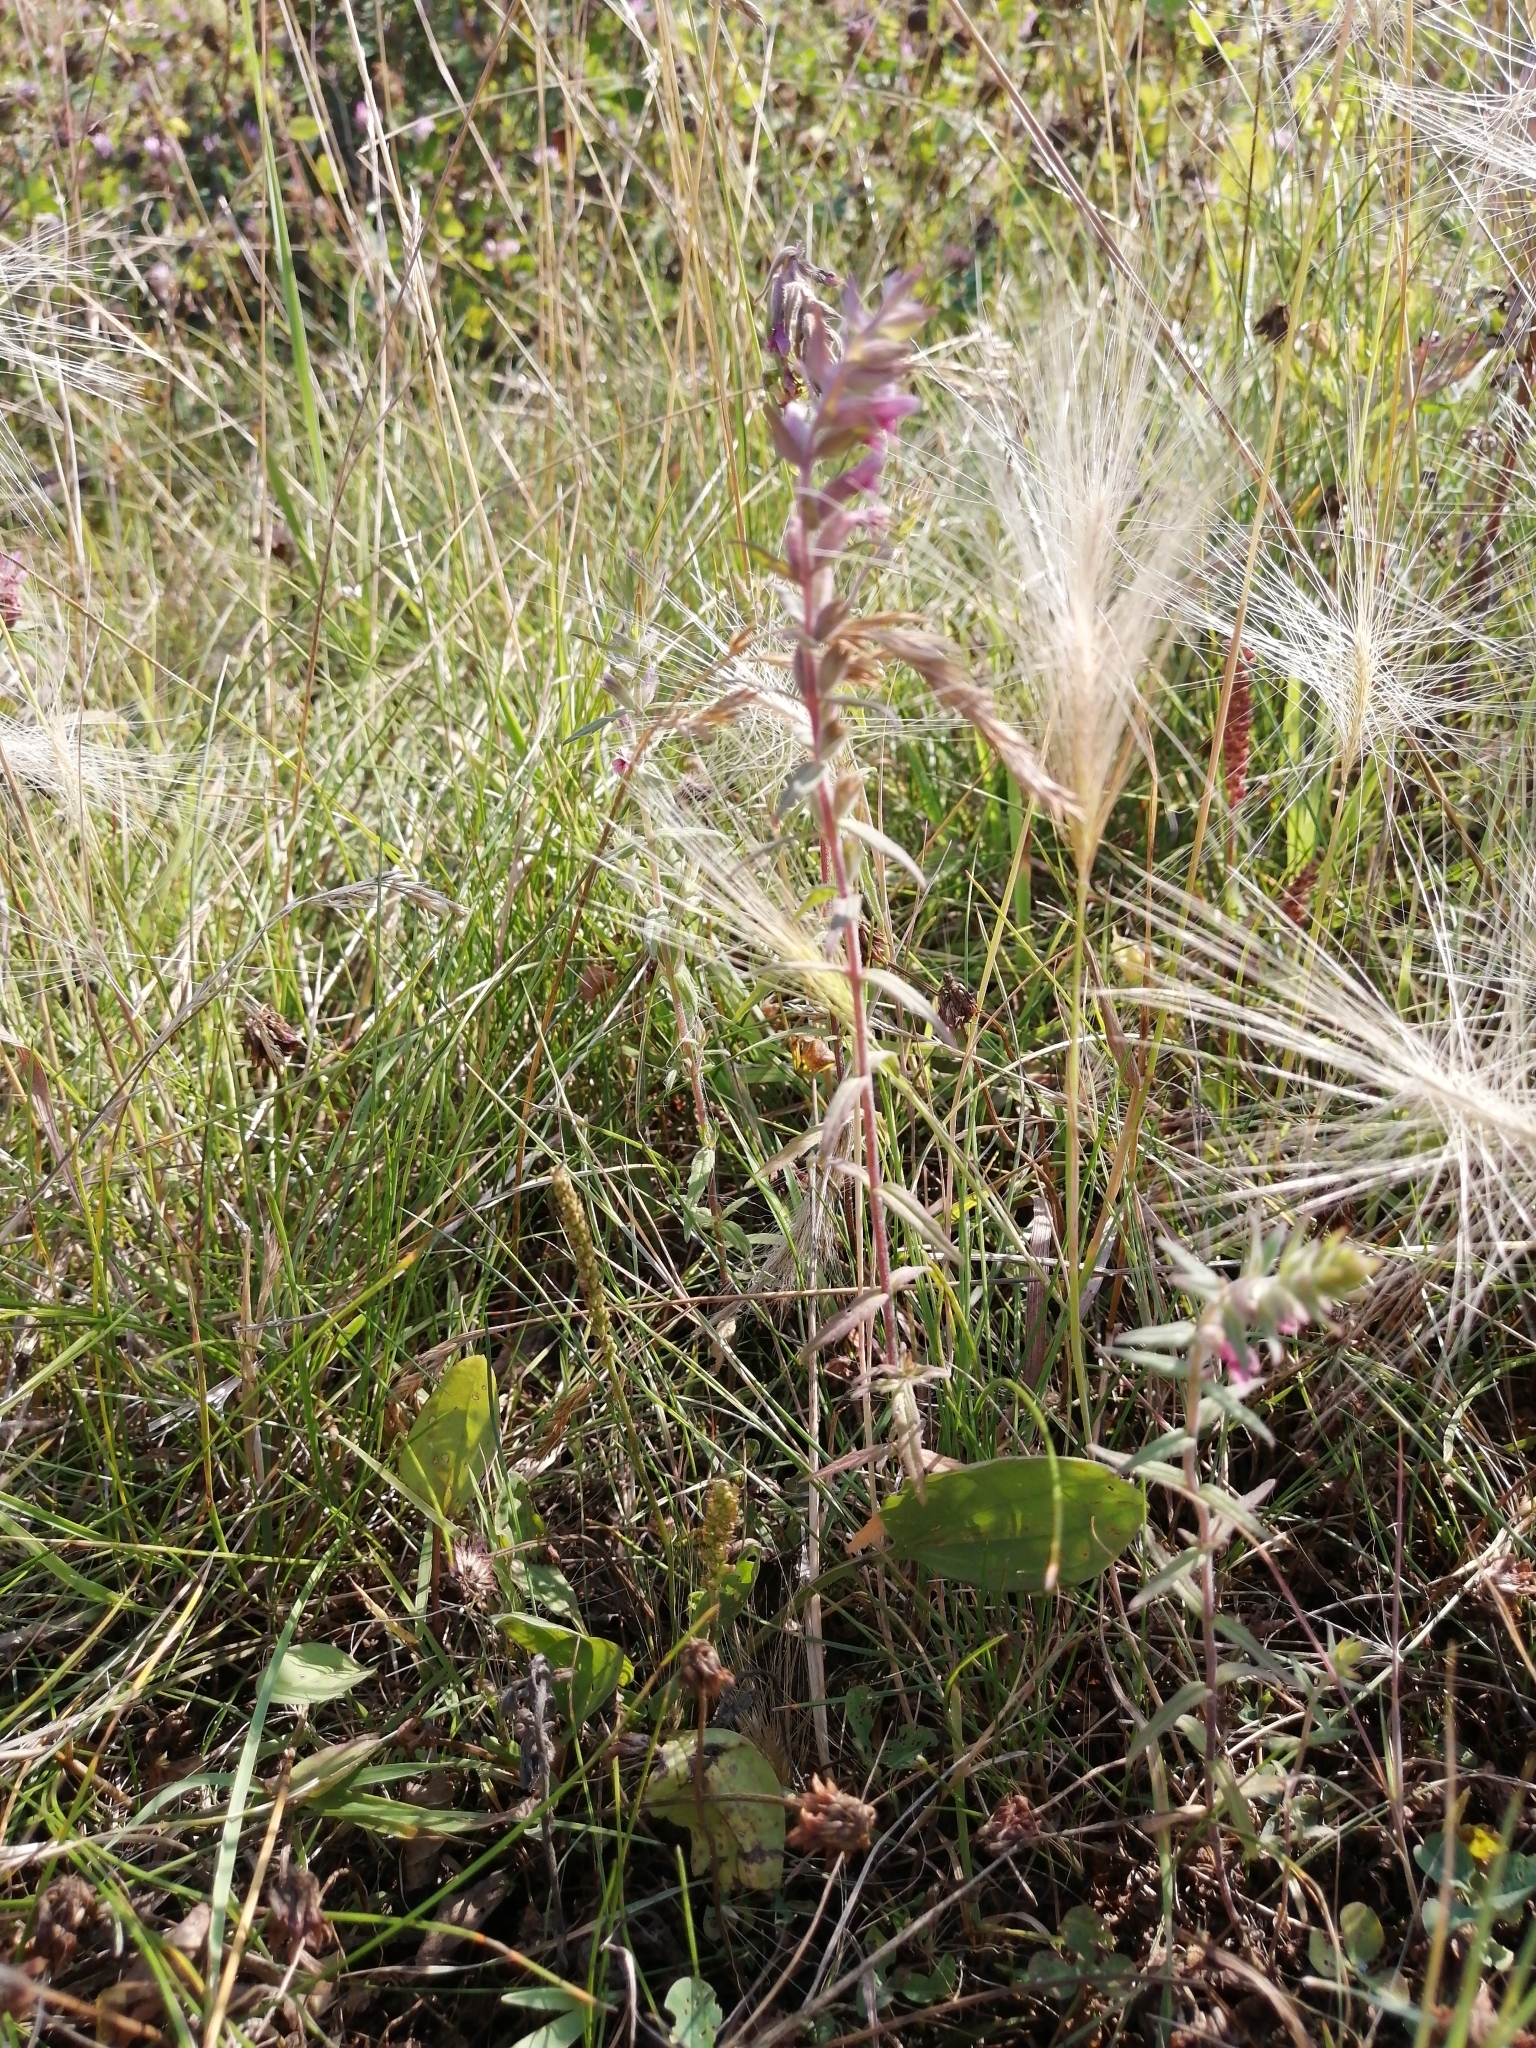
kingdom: Plantae
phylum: Tracheophyta
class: Magnoliopsida
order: Lamiales
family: Orobanchaceae
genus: Odontites
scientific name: Odontites vulgaris
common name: Broomrape
